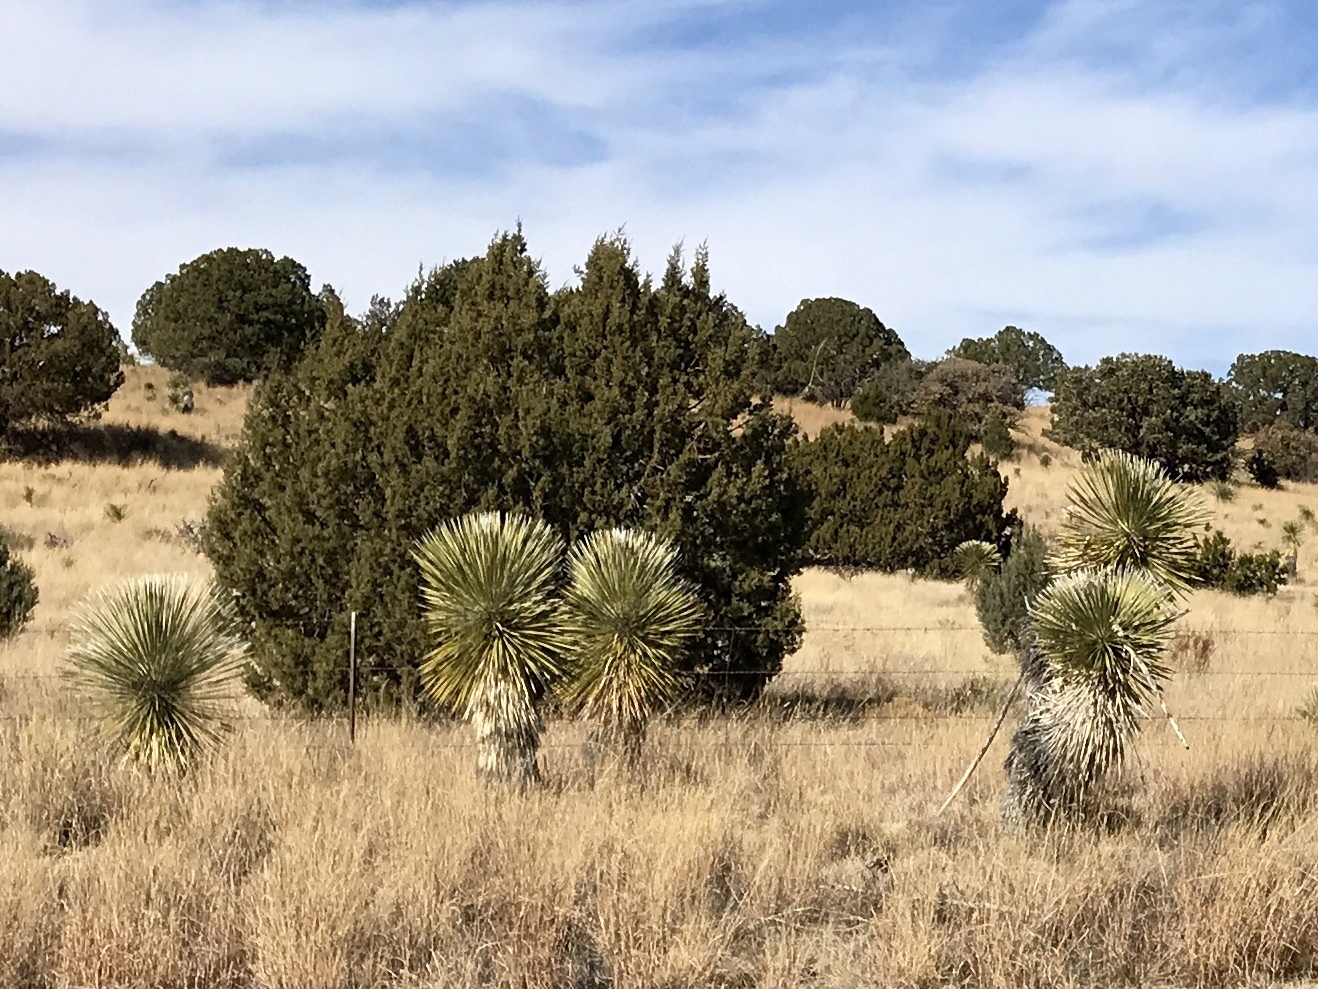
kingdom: Plantae
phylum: Tracheophyta
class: Liliopsida
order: Asparagales
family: Asparagaceae
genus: Yucca
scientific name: Yucca elata
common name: Palmella
